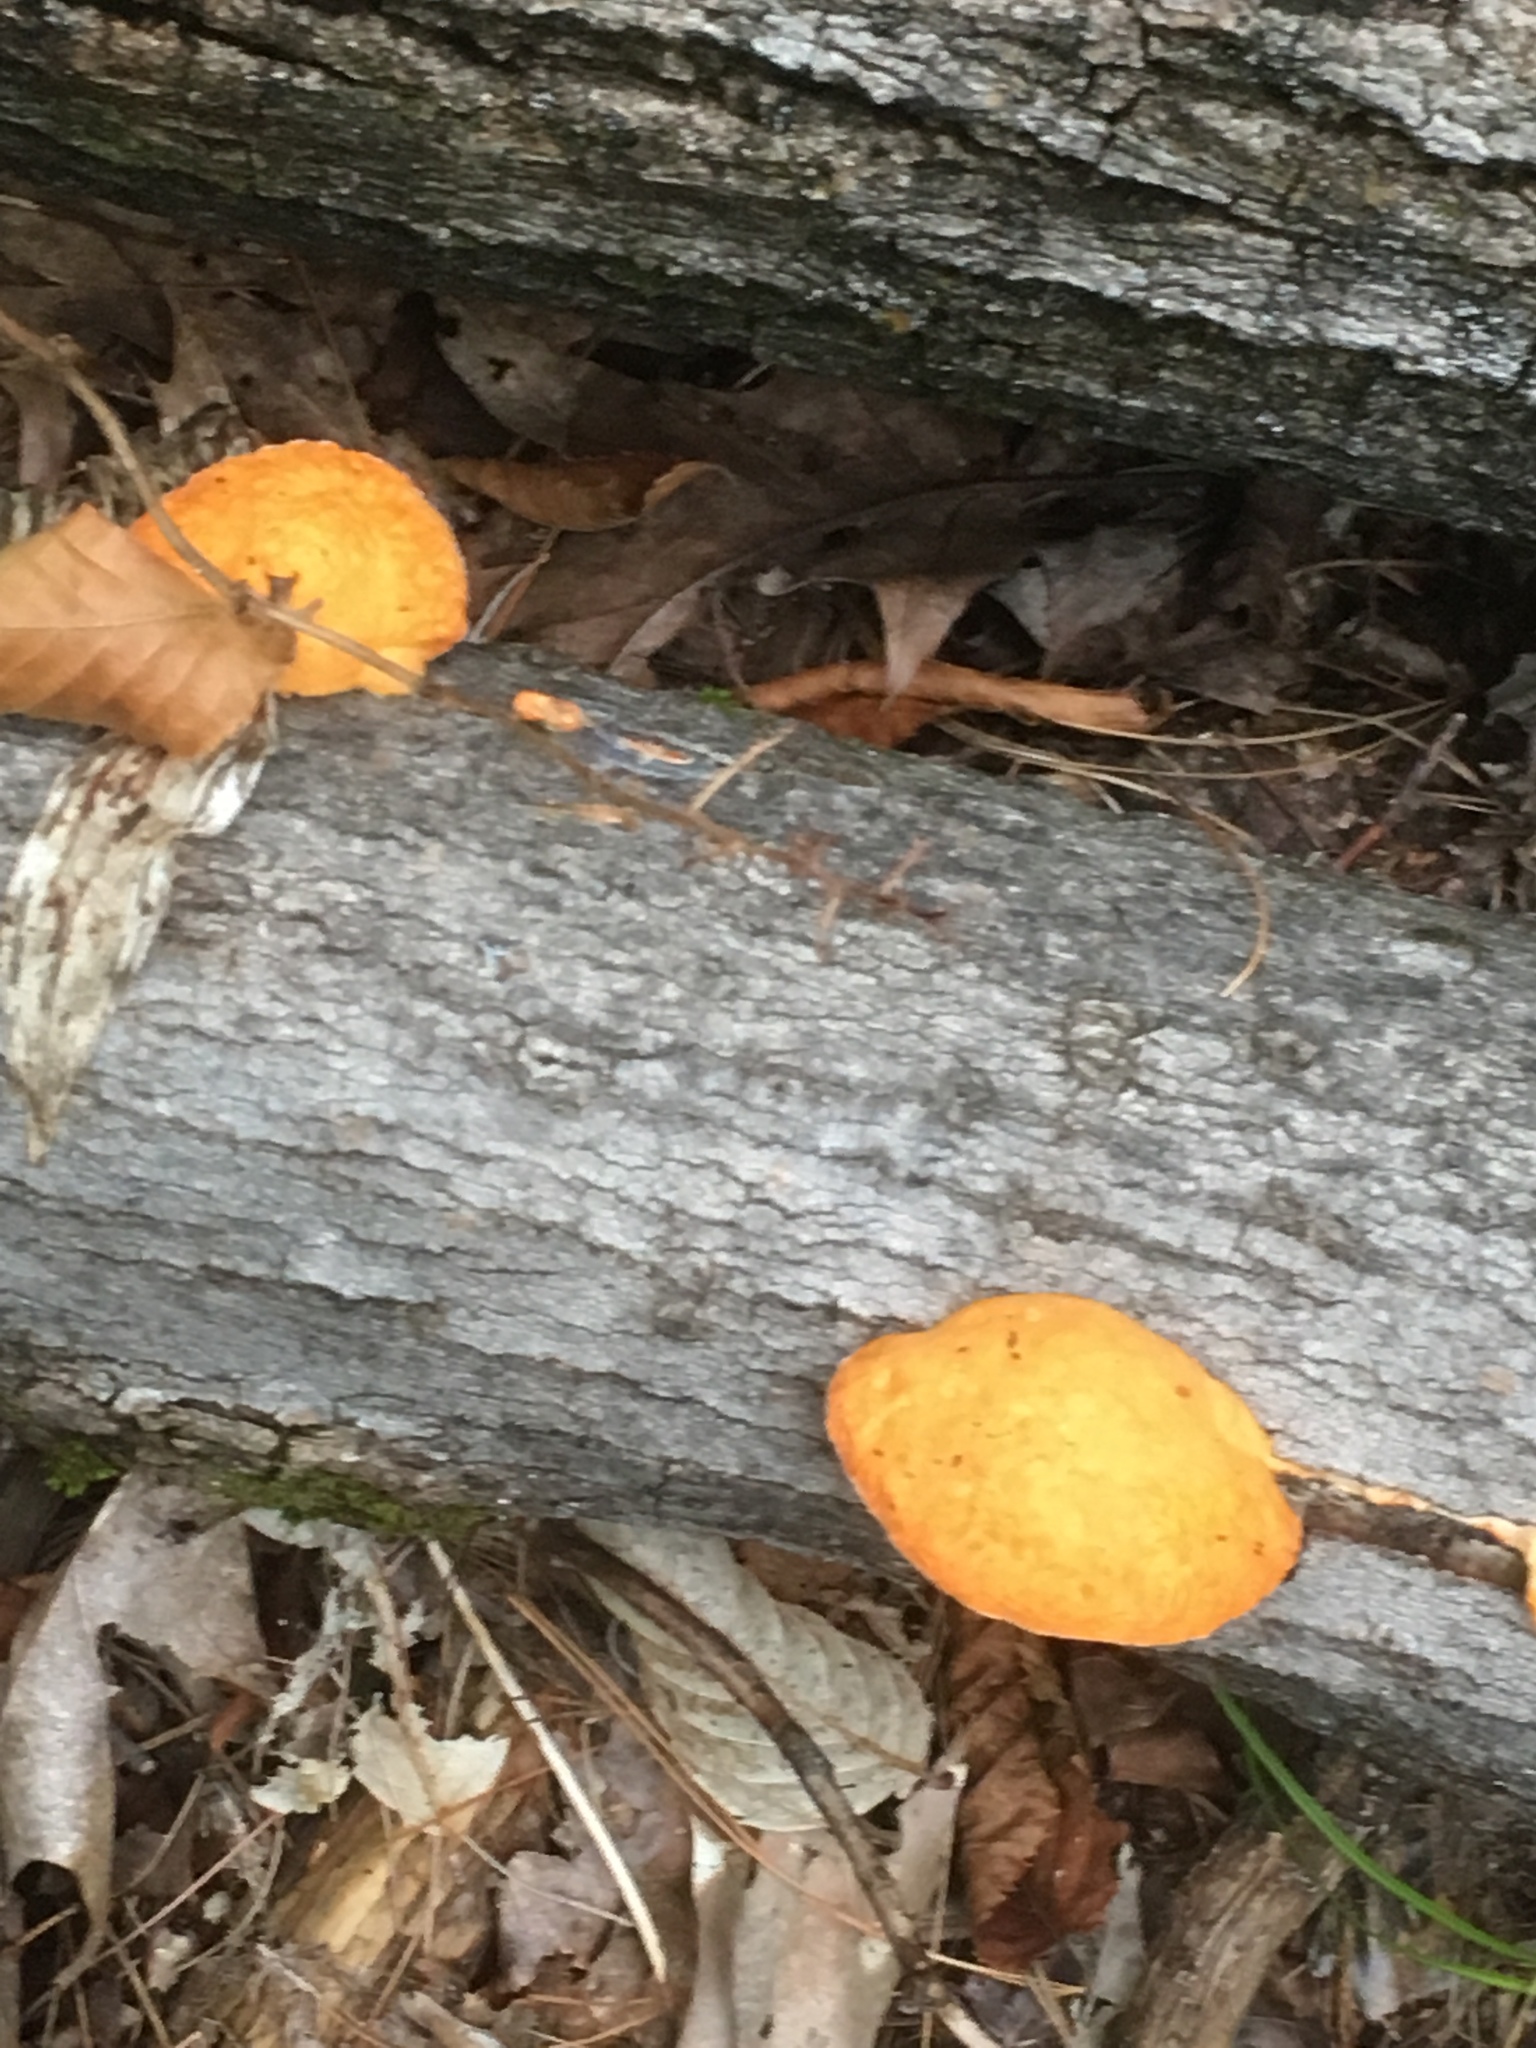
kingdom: Fungi
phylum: Basidiomycota
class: Agaricomycetes
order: Polyporales
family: Polyporaceae
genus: Trametes
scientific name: Trametes cinnabarina
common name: Northern cinnabar polypore
